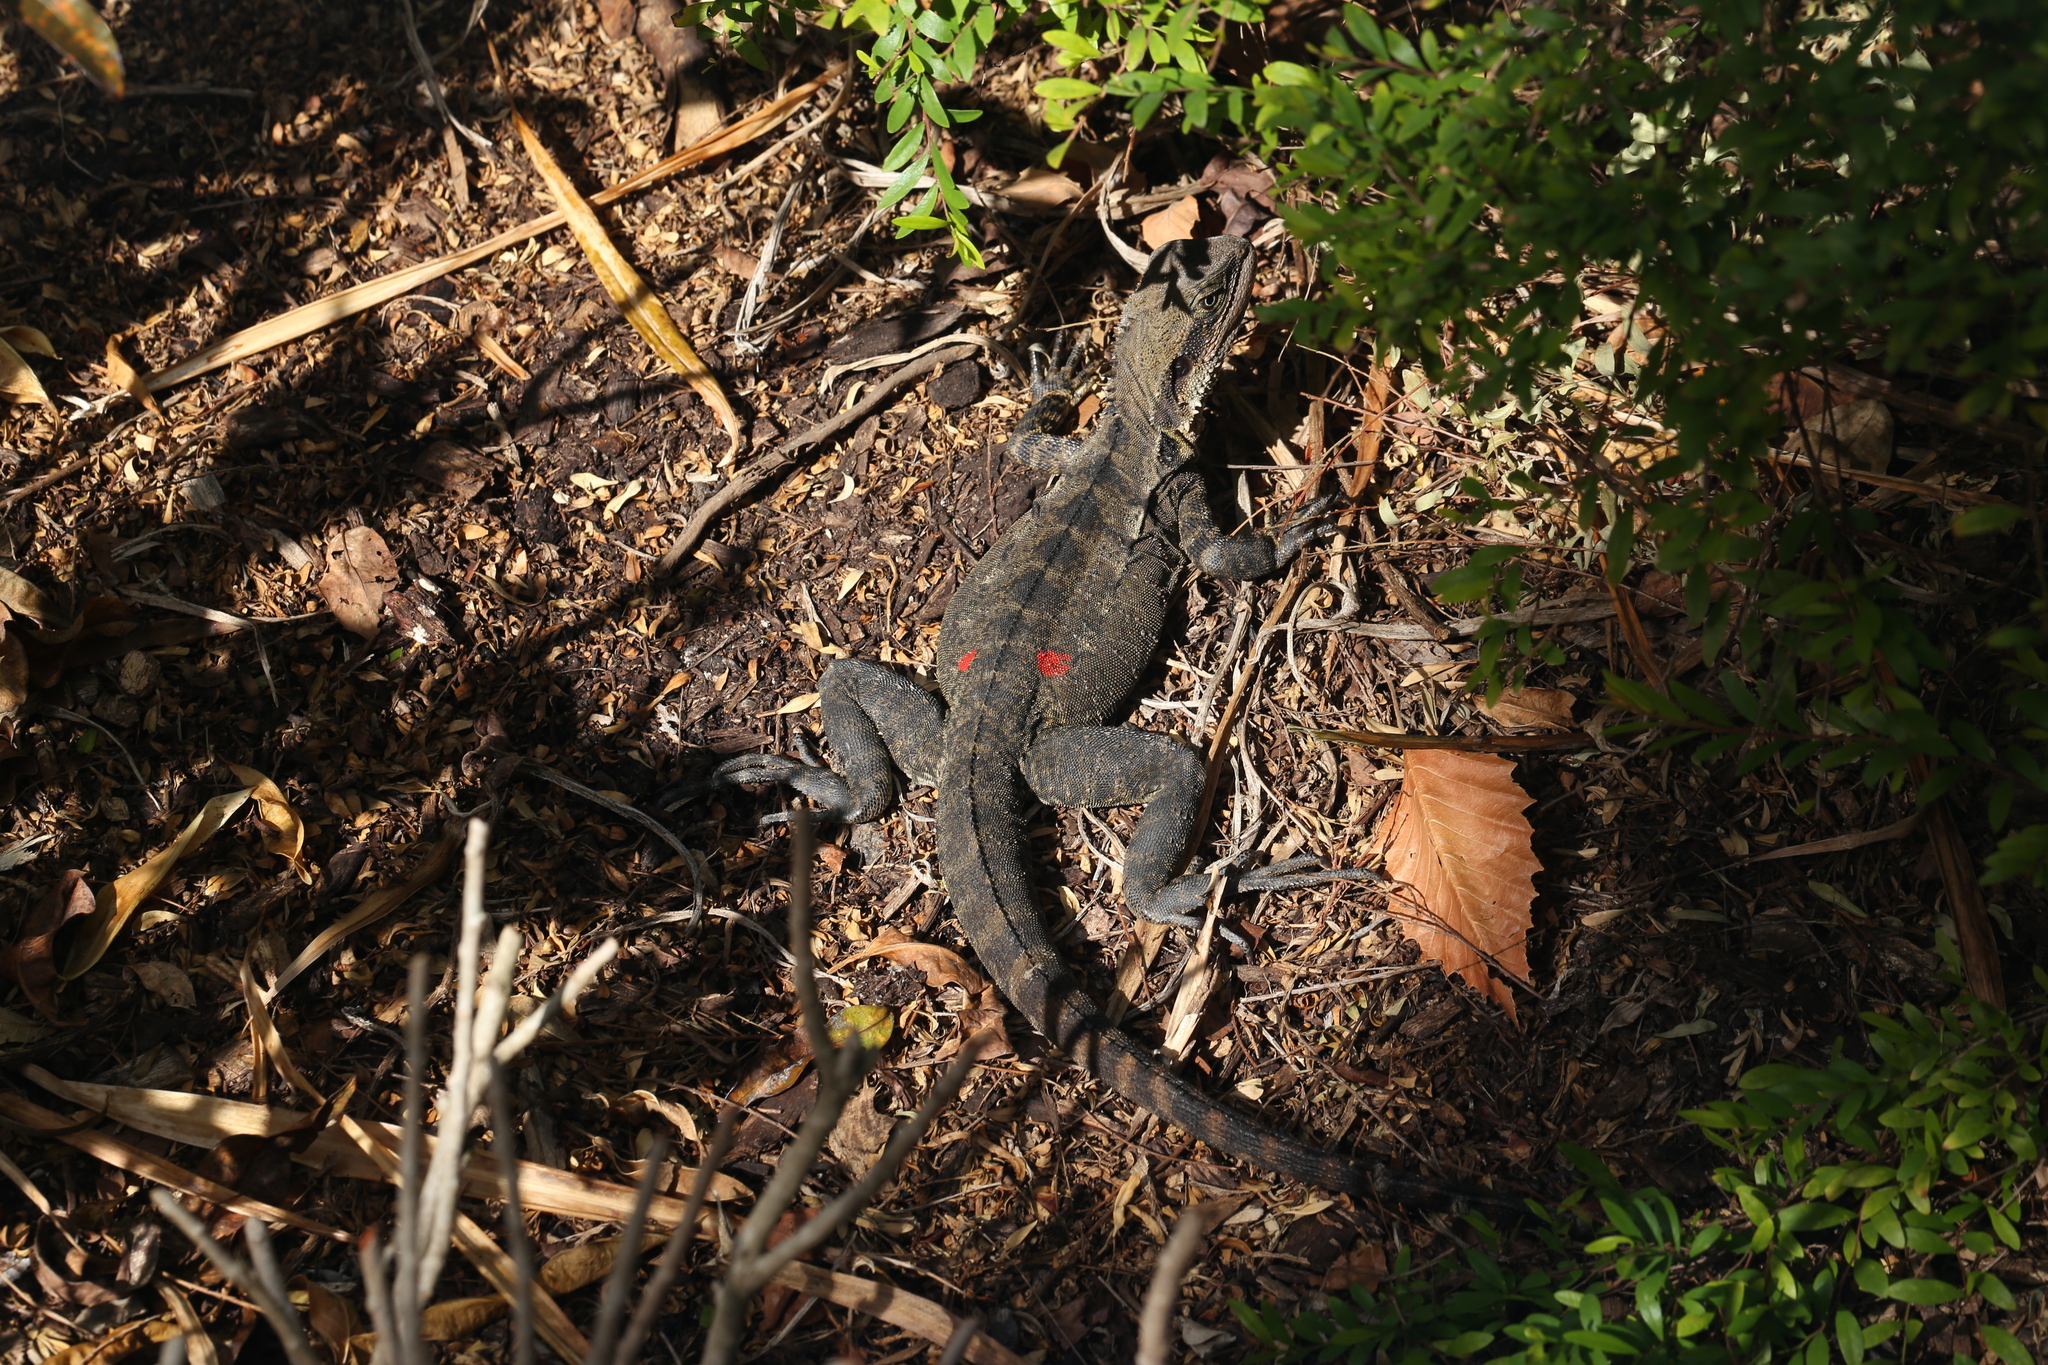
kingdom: Animalia
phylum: Chordata
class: Squamata
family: Agamidae
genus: Intellagama
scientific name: Intellagama lesueurii
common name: Eastern water dragon
